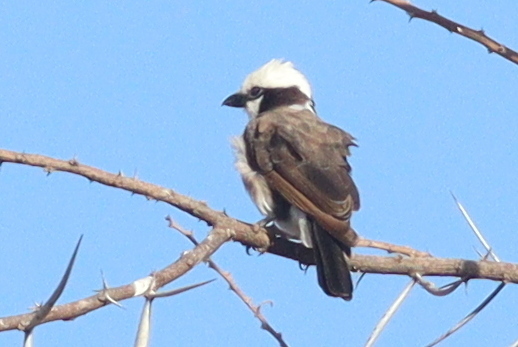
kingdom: Animalia
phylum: Chordata
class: Aves
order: Passeriformes
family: Laniidae
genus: Eurocephalus
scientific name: Eurocephalus ruppelli
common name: Northern white-crowned shrike
